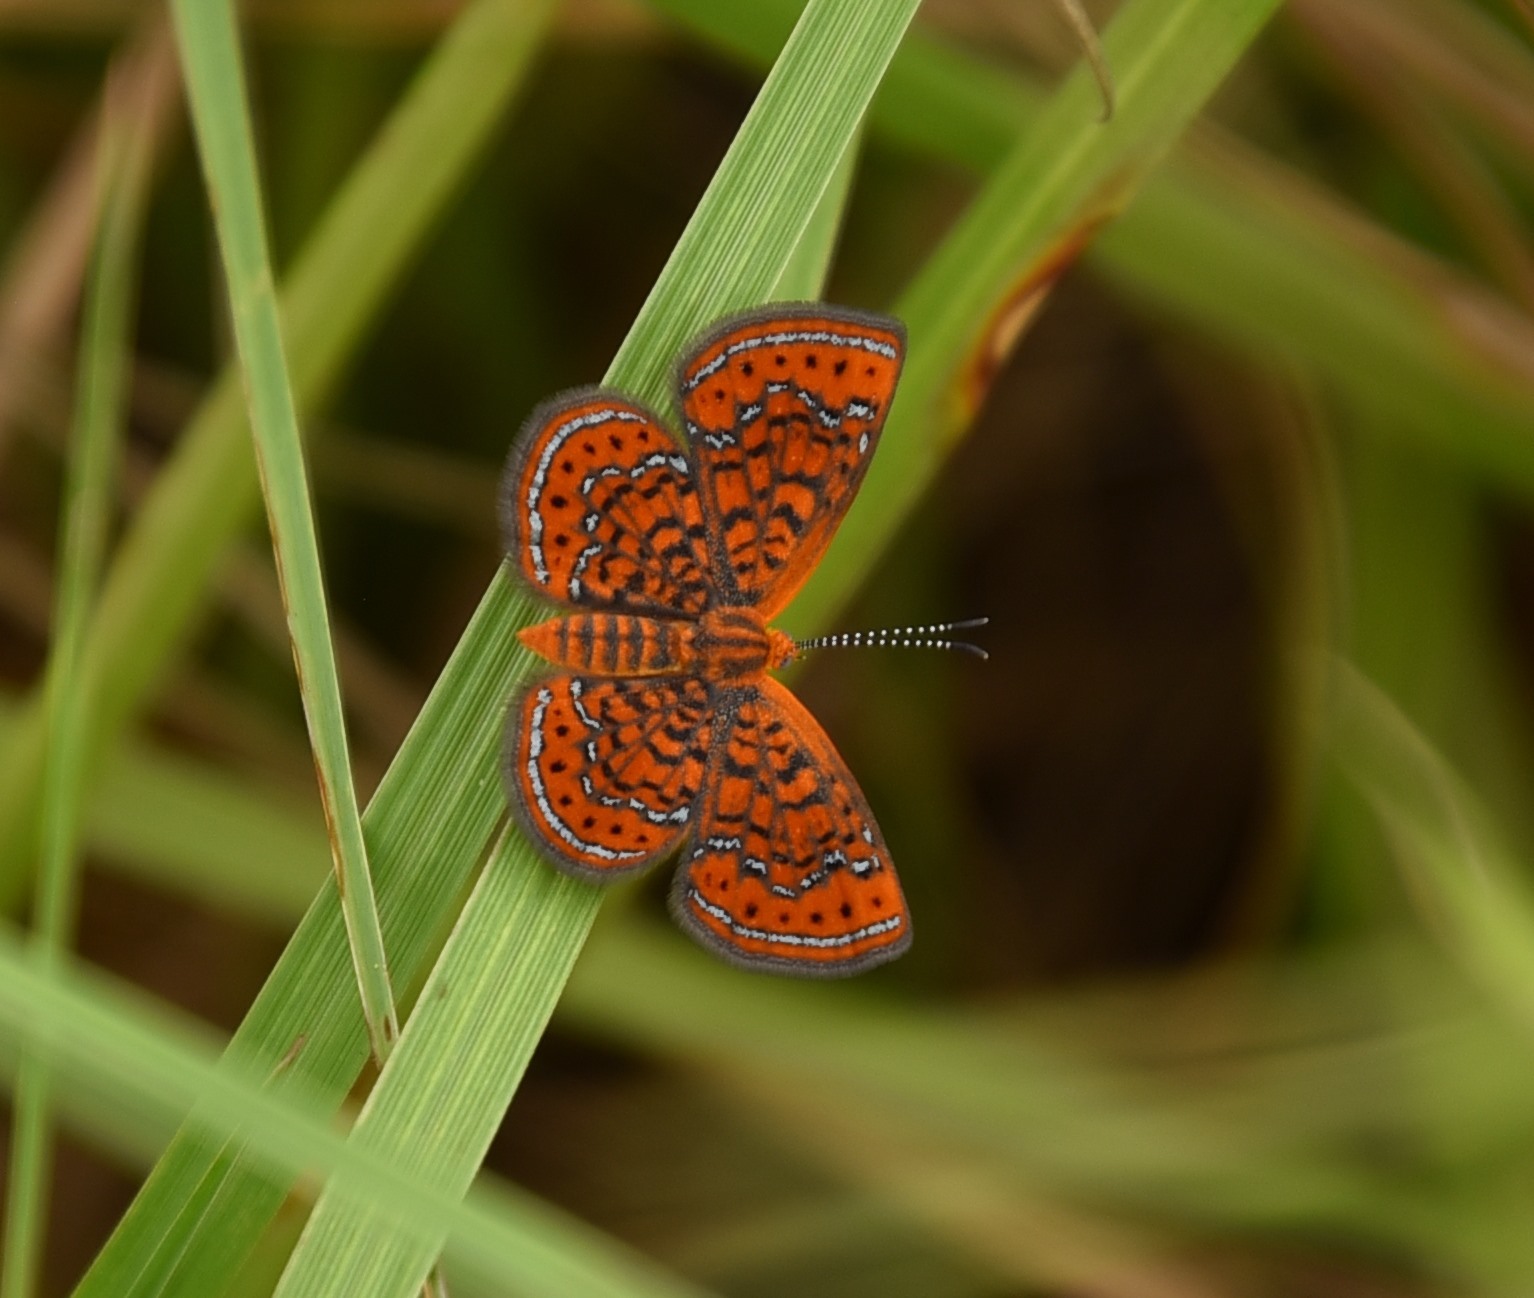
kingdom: Animalia
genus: Calephelis
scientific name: Calephelis virginiensis
